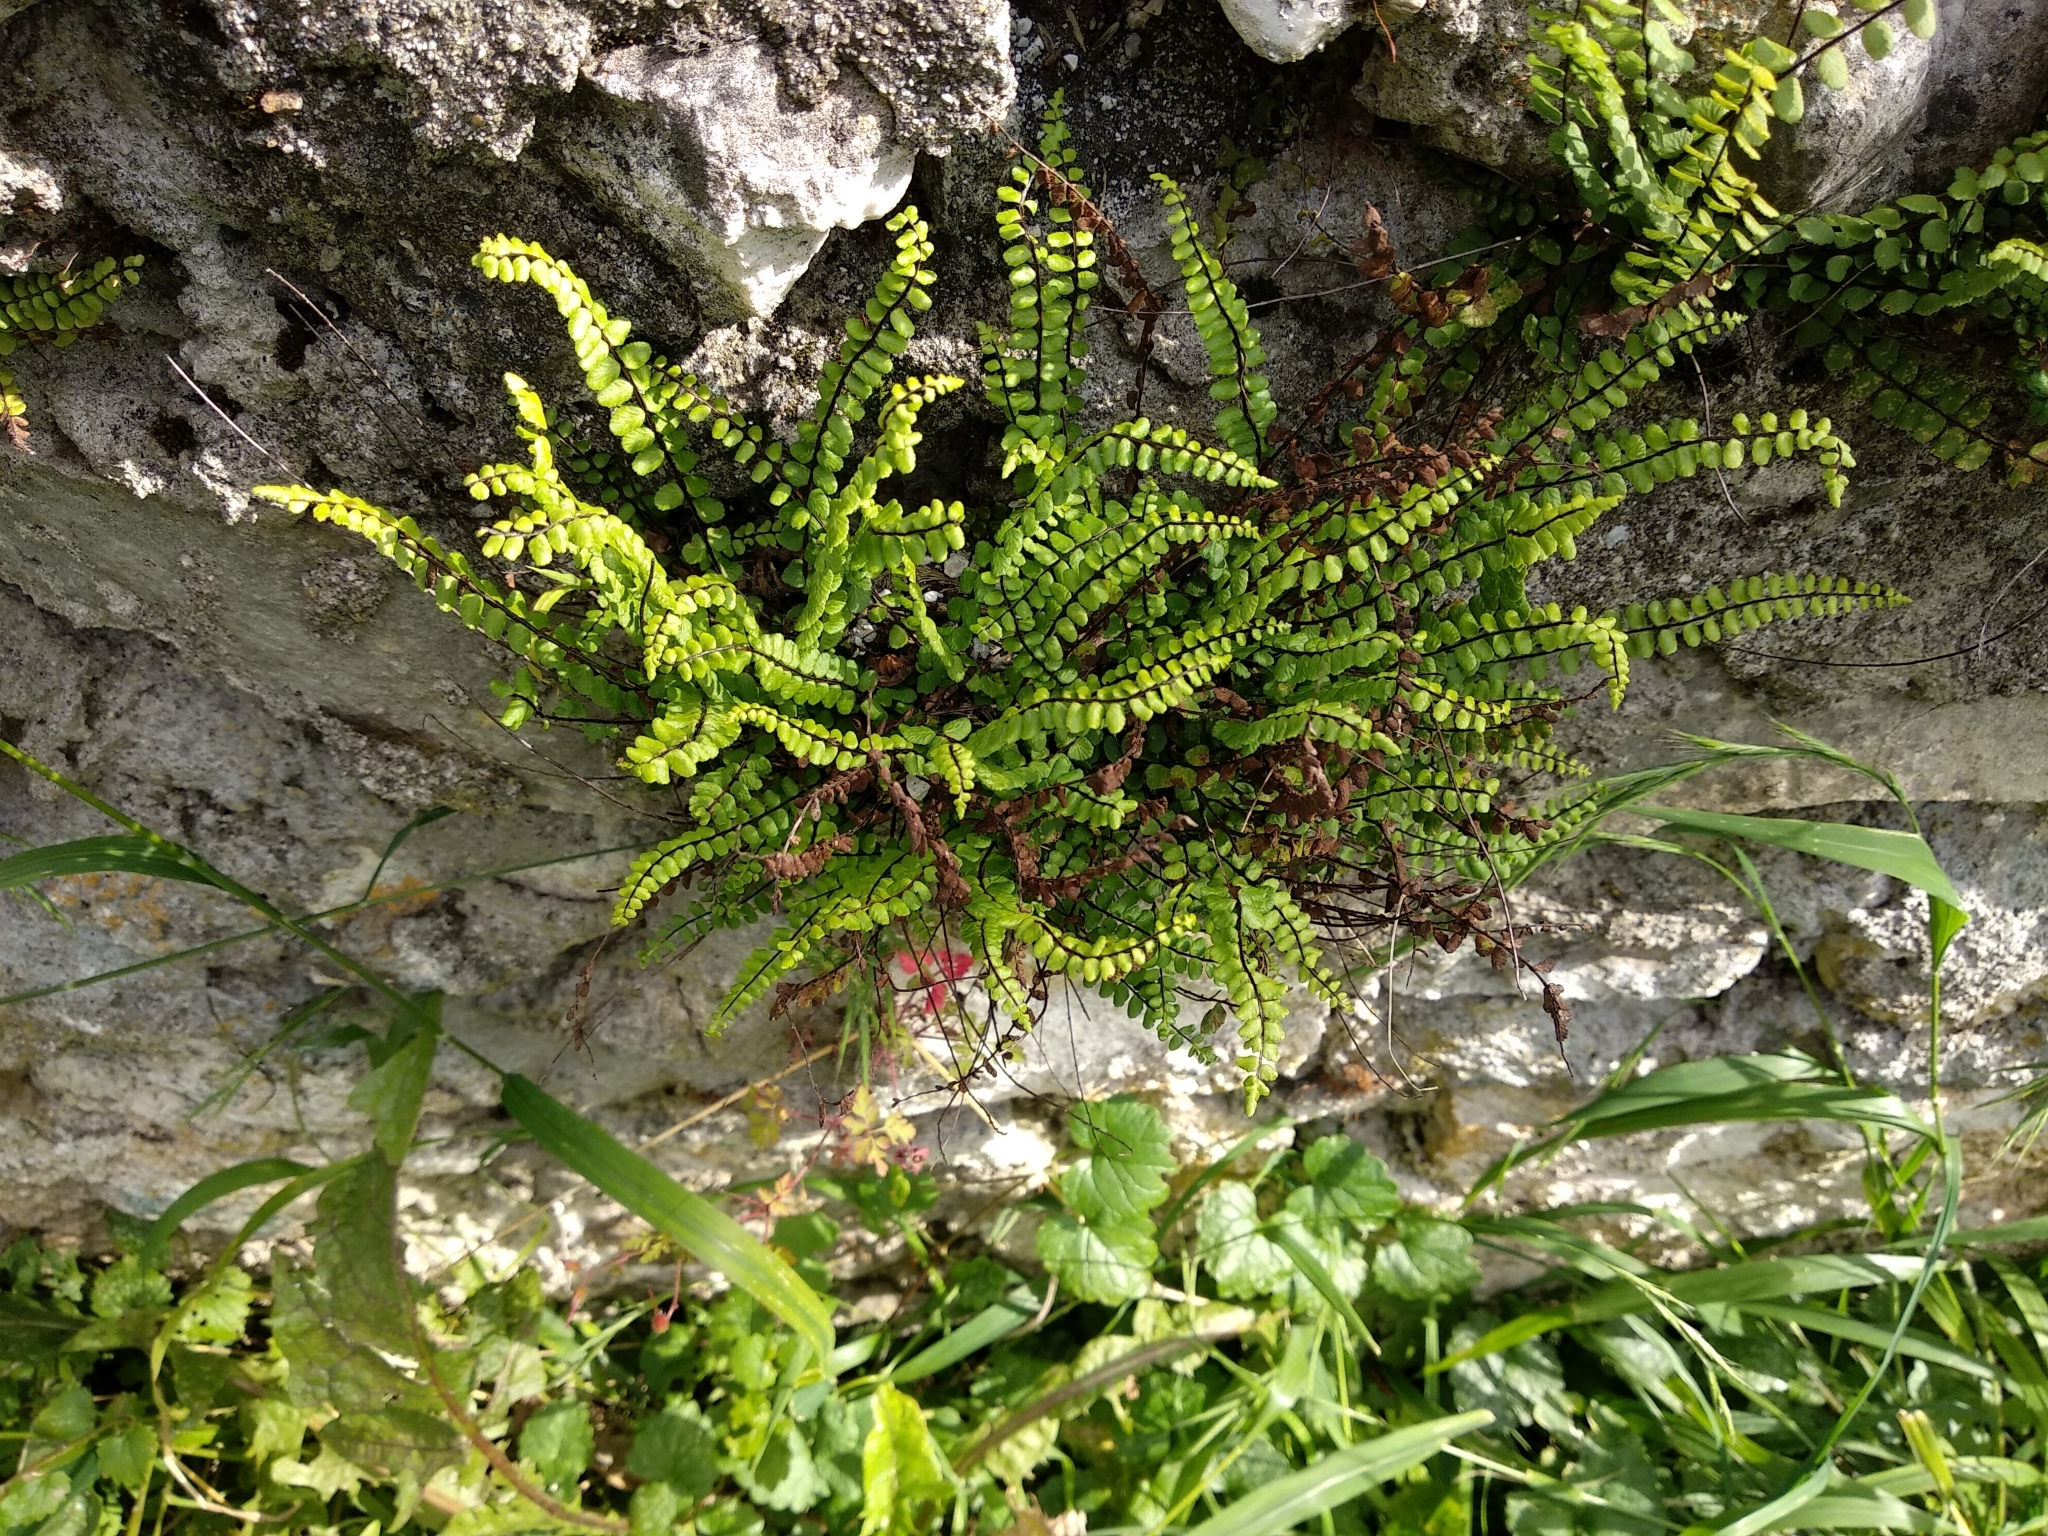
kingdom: Plantae
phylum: Tracheophyta
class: Polypodiopsida
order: Polypodiales
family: Aspleniaceae
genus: Asplenium
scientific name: Asplenium trichomanes
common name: Maidenhair spleenwort
